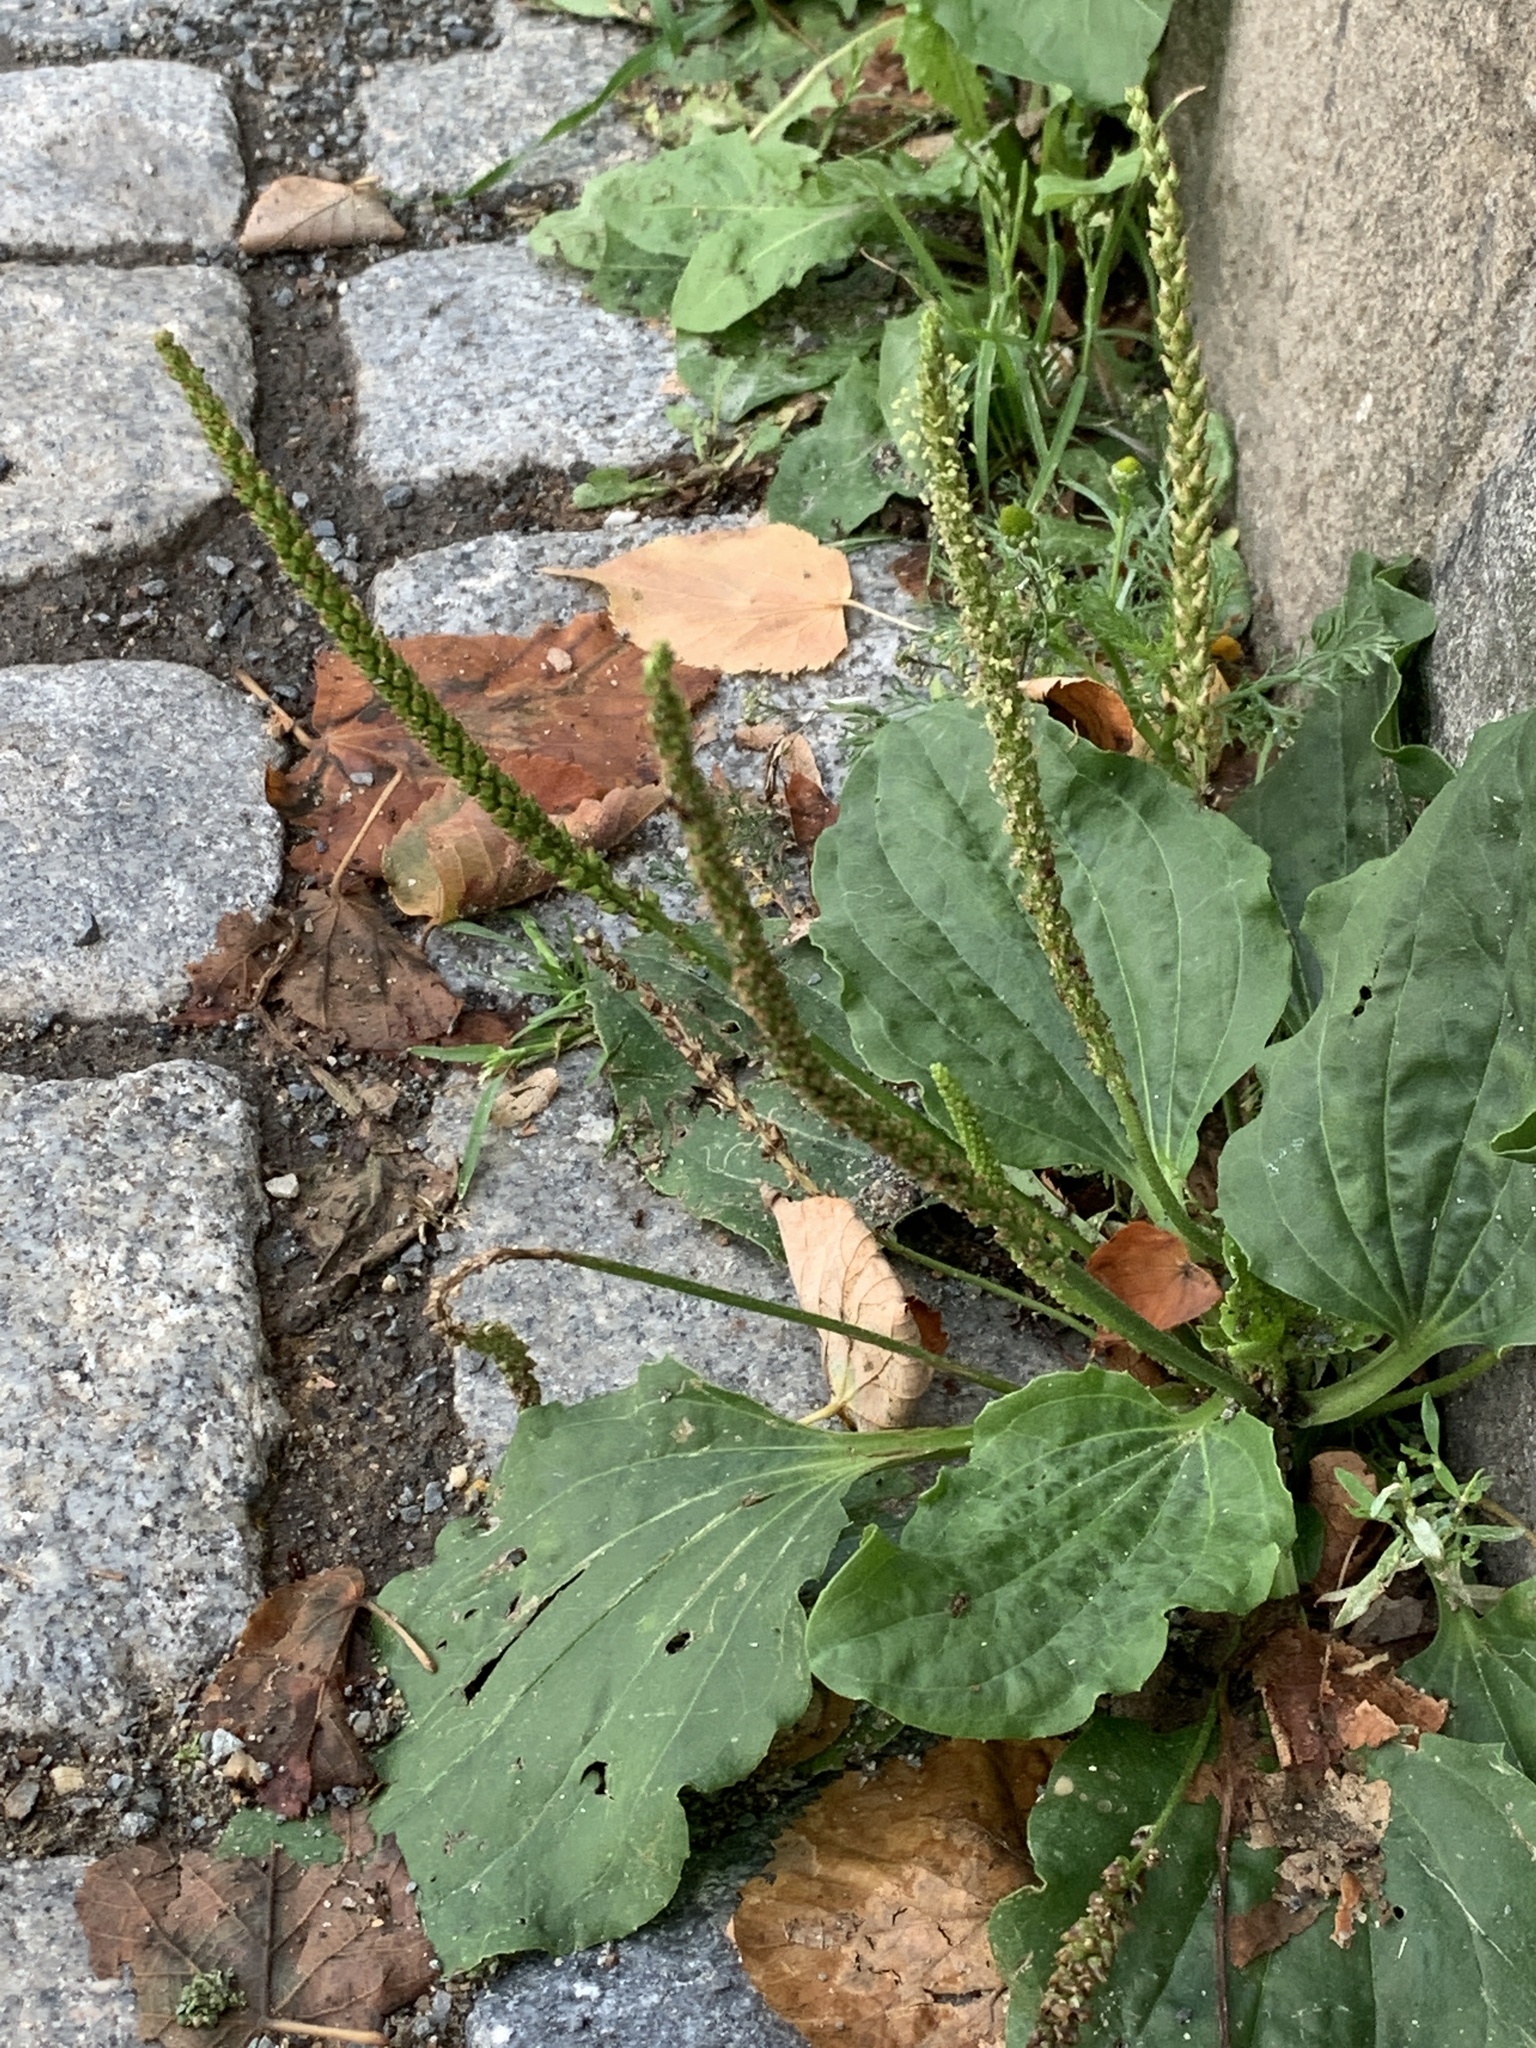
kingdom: Plantae
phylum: Tracheophyta
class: Magnoliopsida
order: Lamiales
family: Plantaginaceae
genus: Plantago
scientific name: Plantago major
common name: Common plantain
